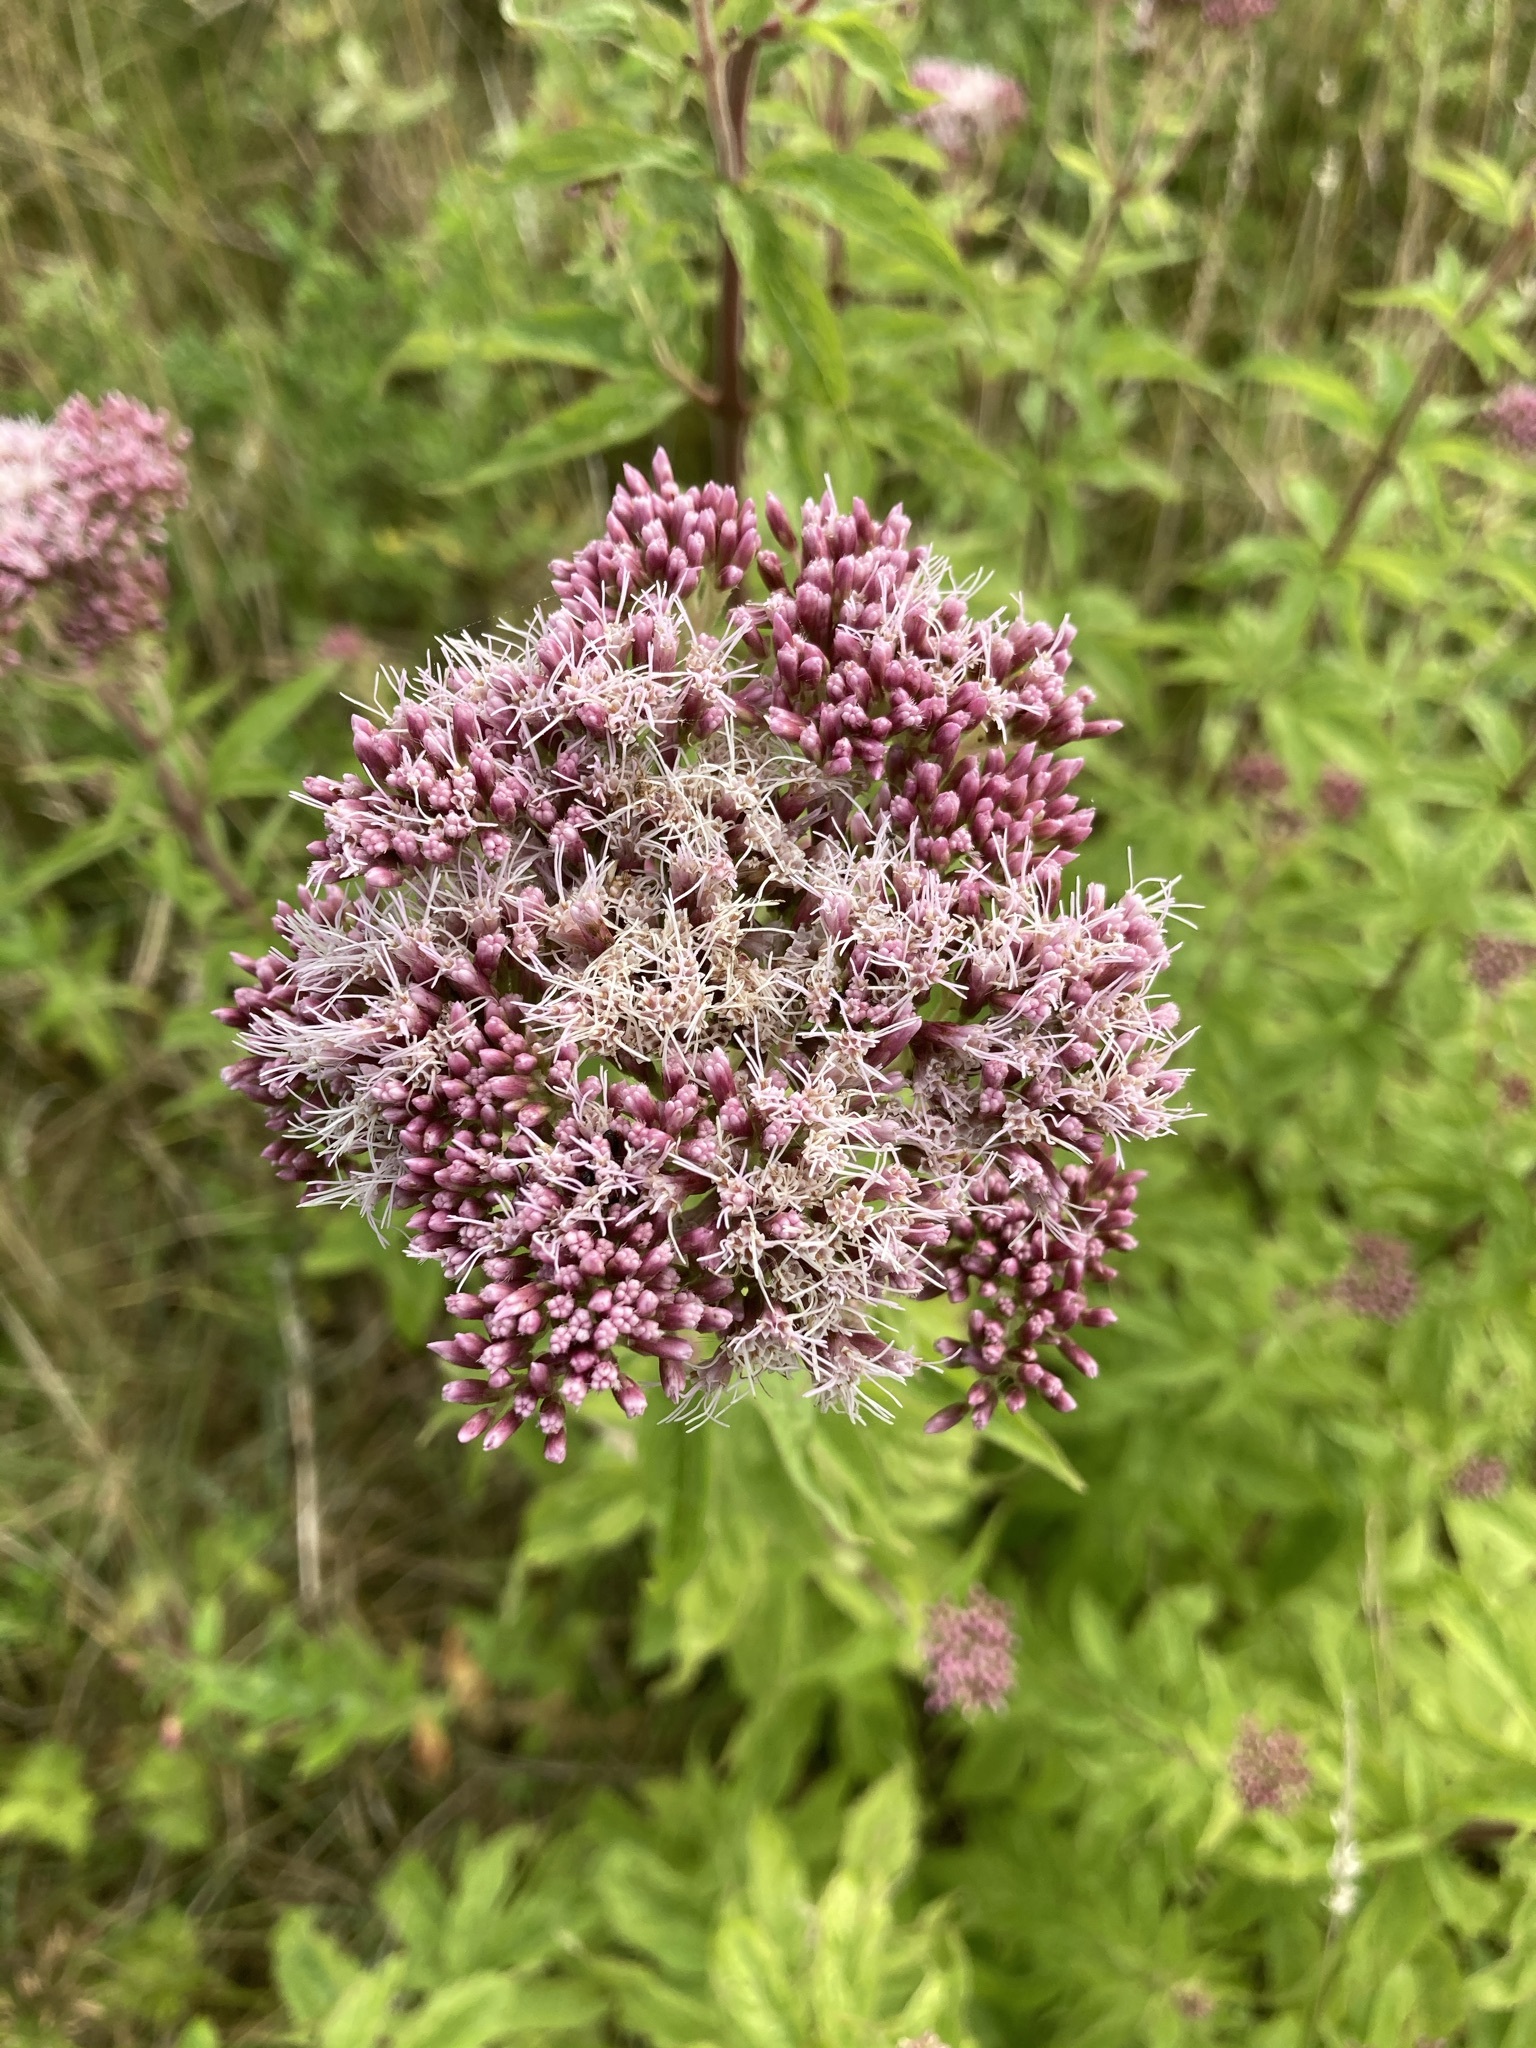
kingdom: Plantae
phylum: Tracheophyta
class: Magnoliopsida
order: Asterales
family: Asteraceae
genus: Eupatorium
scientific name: Eupatorium cannabinum
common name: Hemp-agrimony
